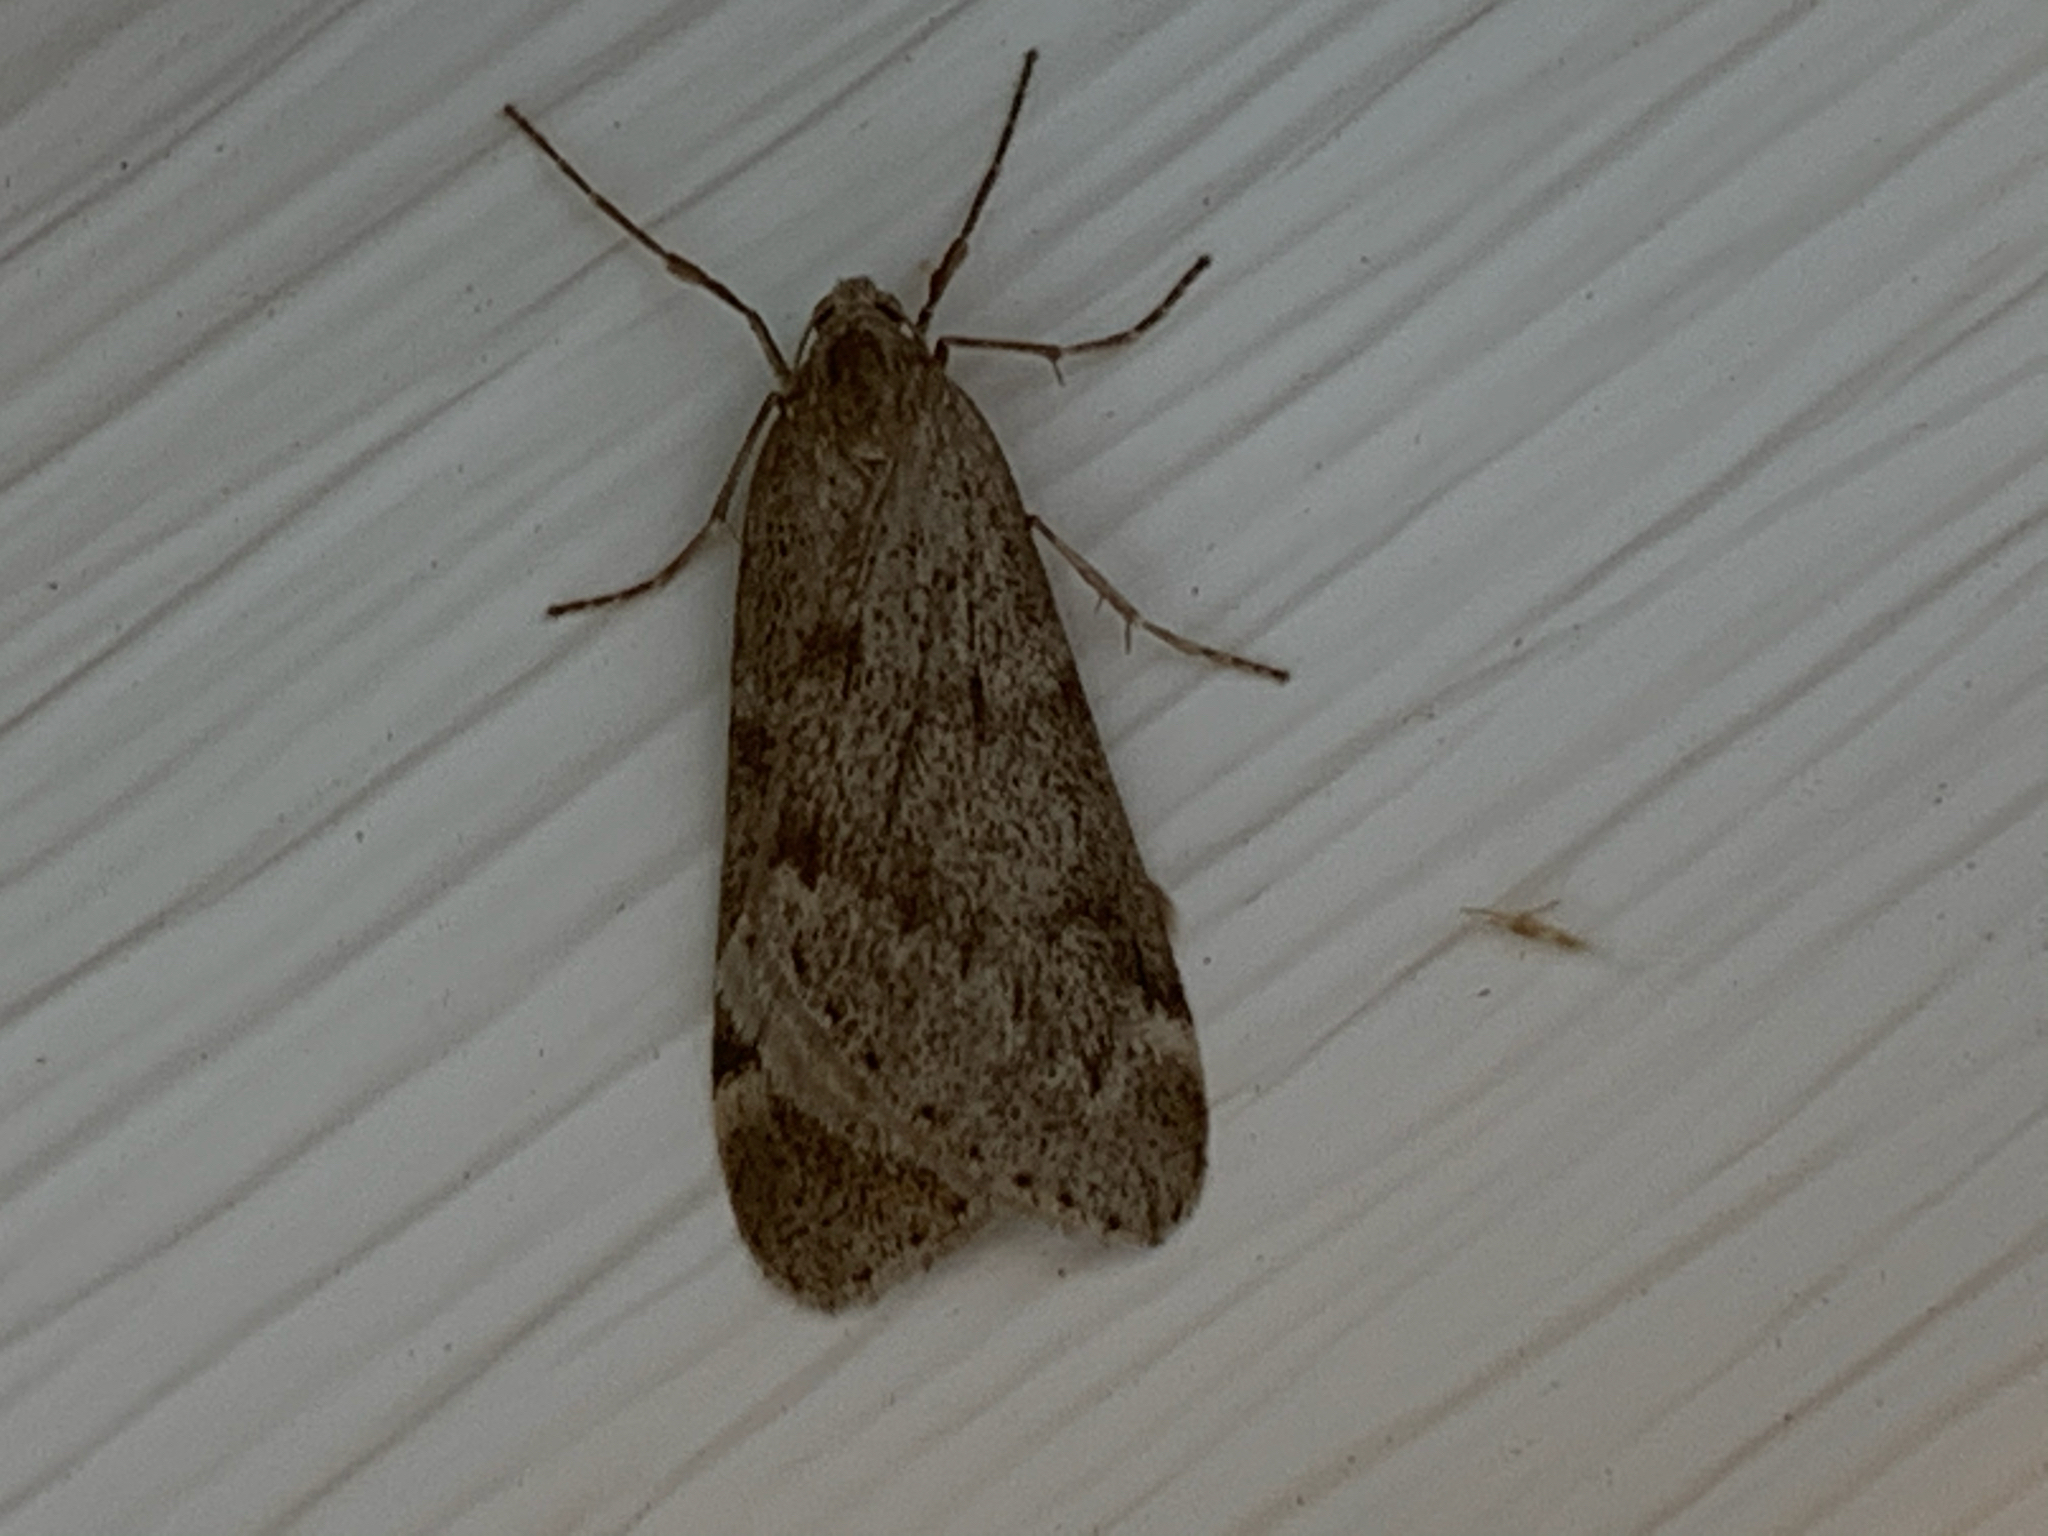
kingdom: Animalia
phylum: Arthropoda
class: Insecta
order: Lepidoptera
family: Geometridae
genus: Alsophila
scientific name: Alsophila pometaria
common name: Fall cankerworm
